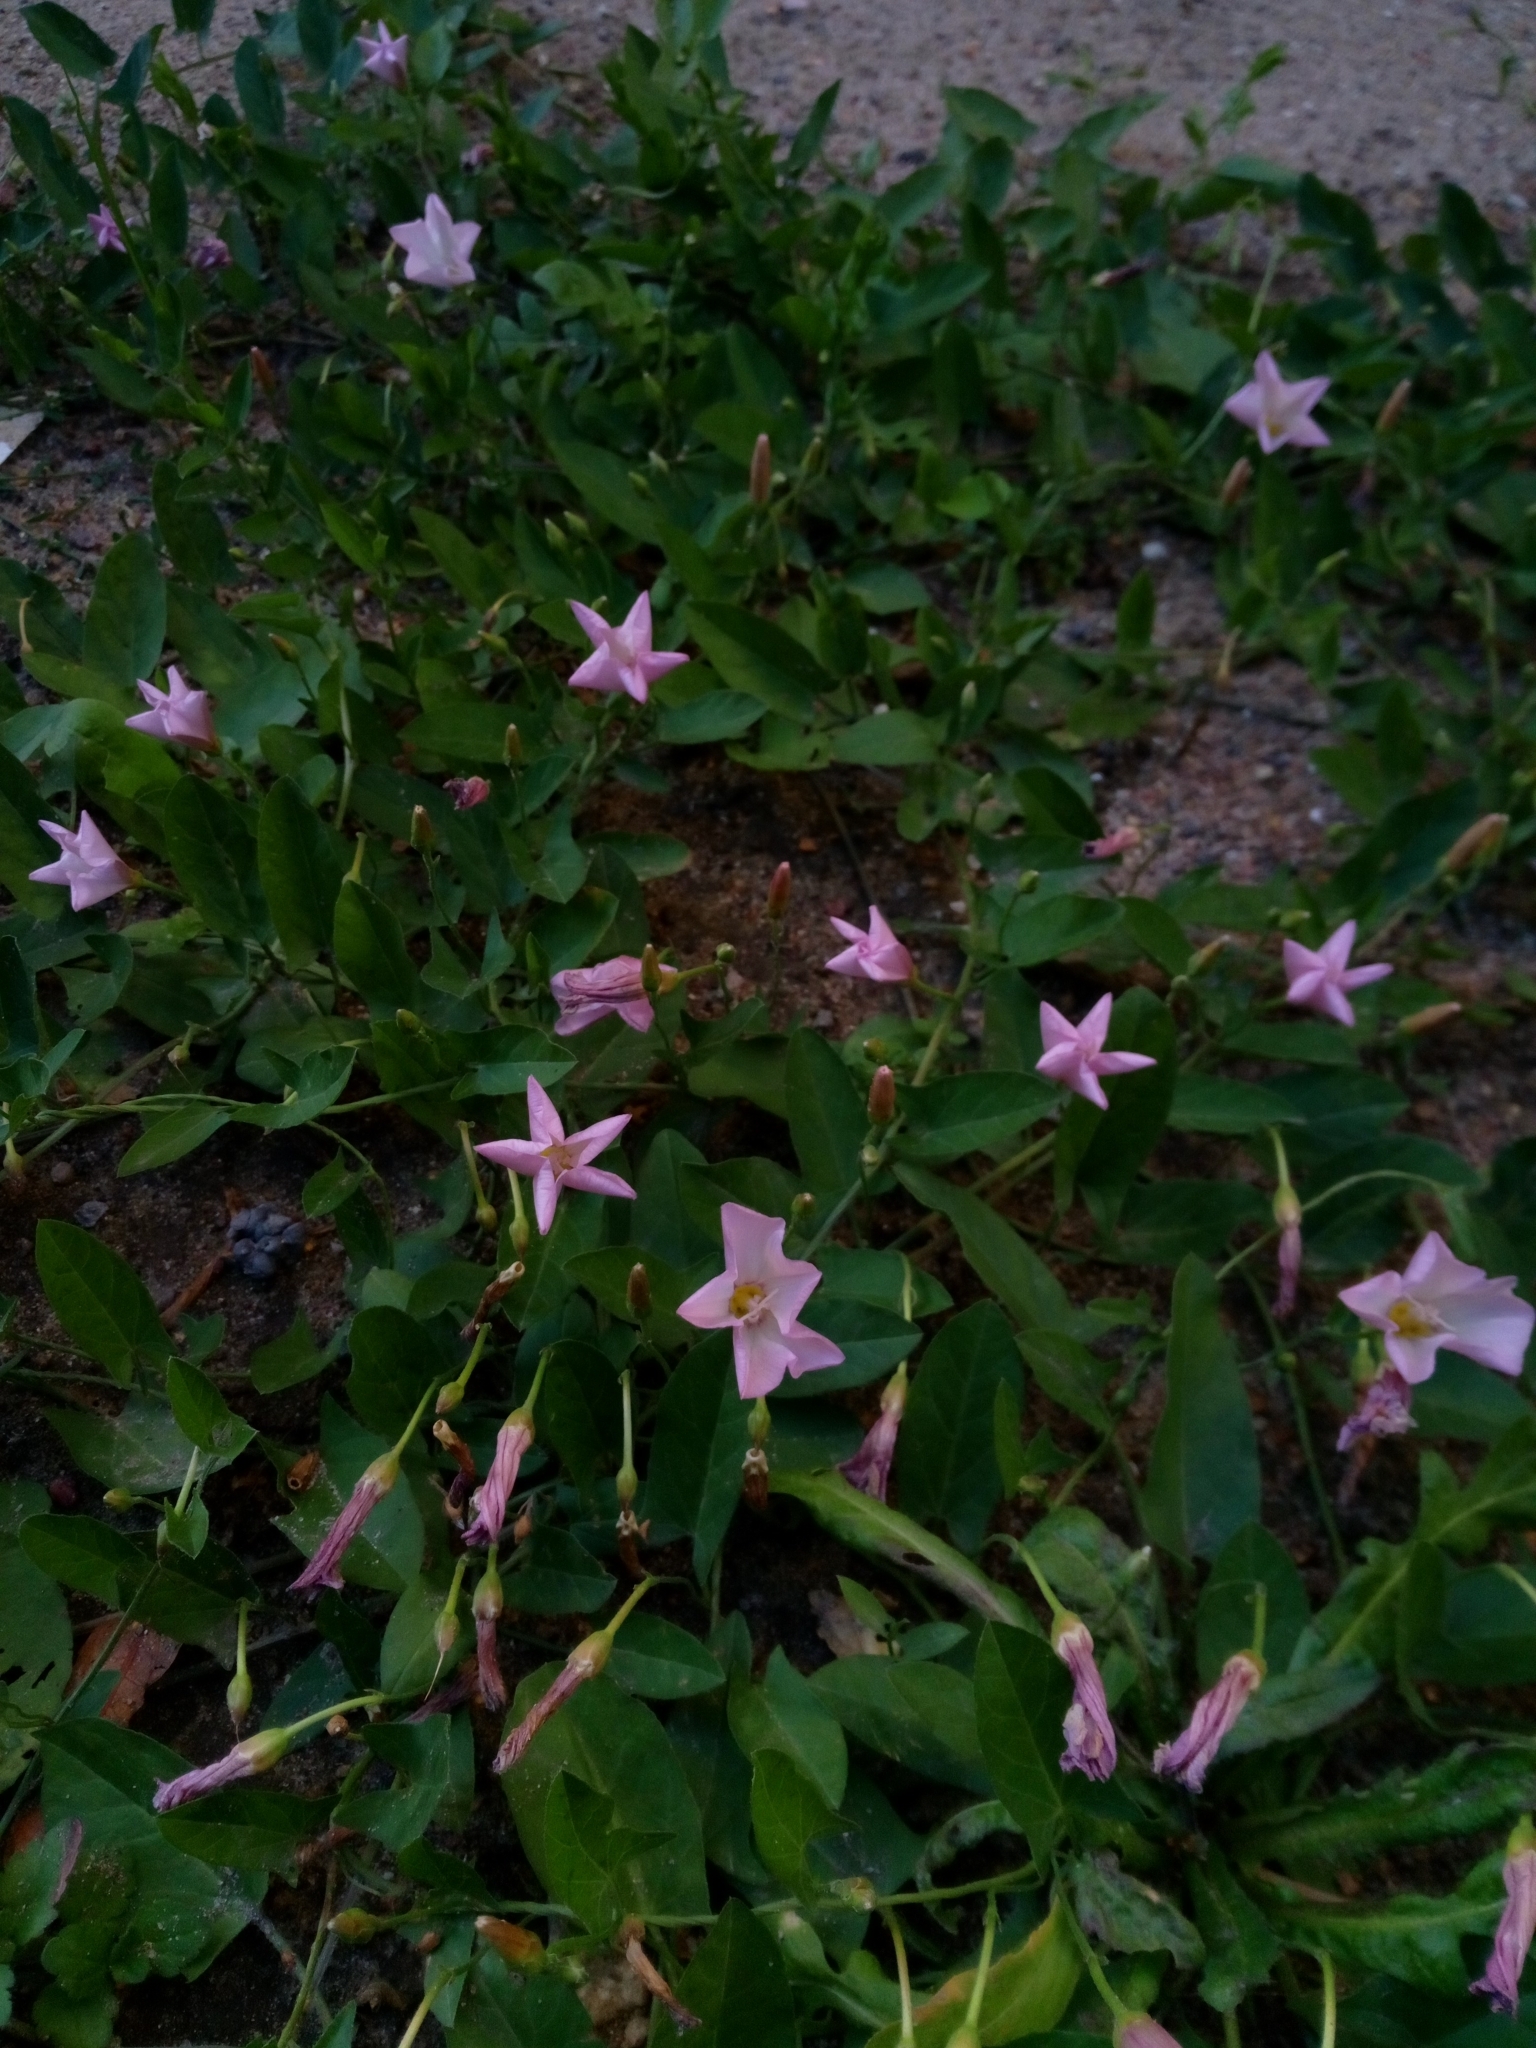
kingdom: Plantae
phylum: Tracheophyta
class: Magnoliopsida
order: Solanales
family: Convolvulaceae
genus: Convolvulus
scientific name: Convolvulus arvensis
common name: Field bindweed
